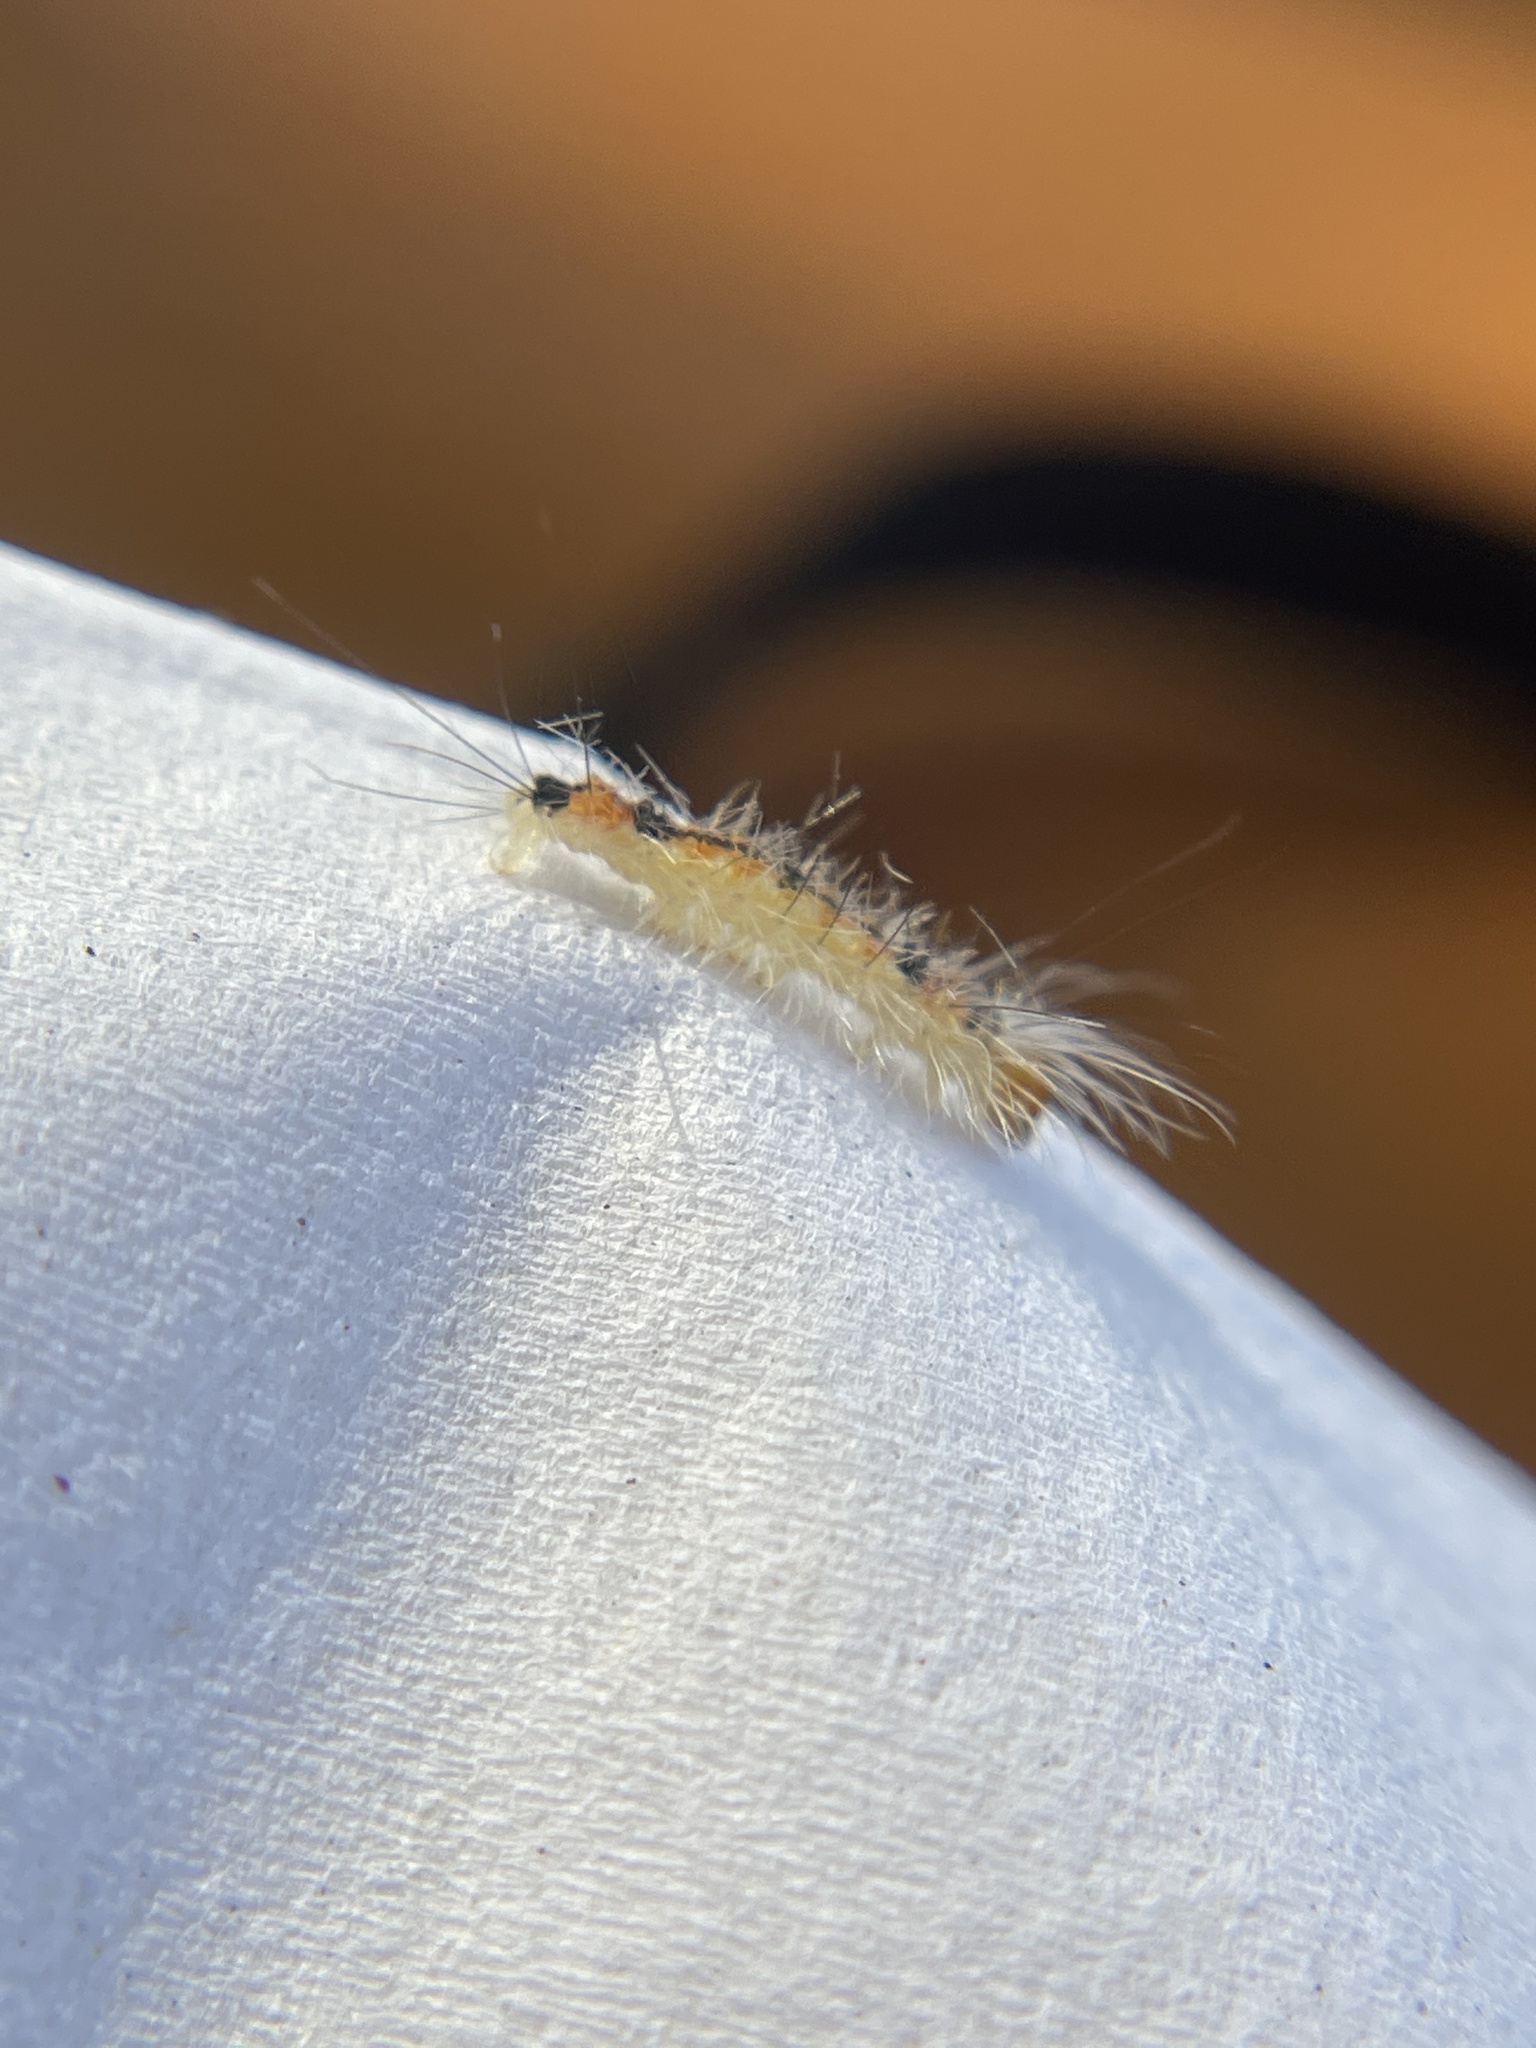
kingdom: Animalia
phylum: Arthropoda
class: Insecta
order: Lepidoptera
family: Erebidae
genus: Lymire
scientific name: Lymire edwardsii
